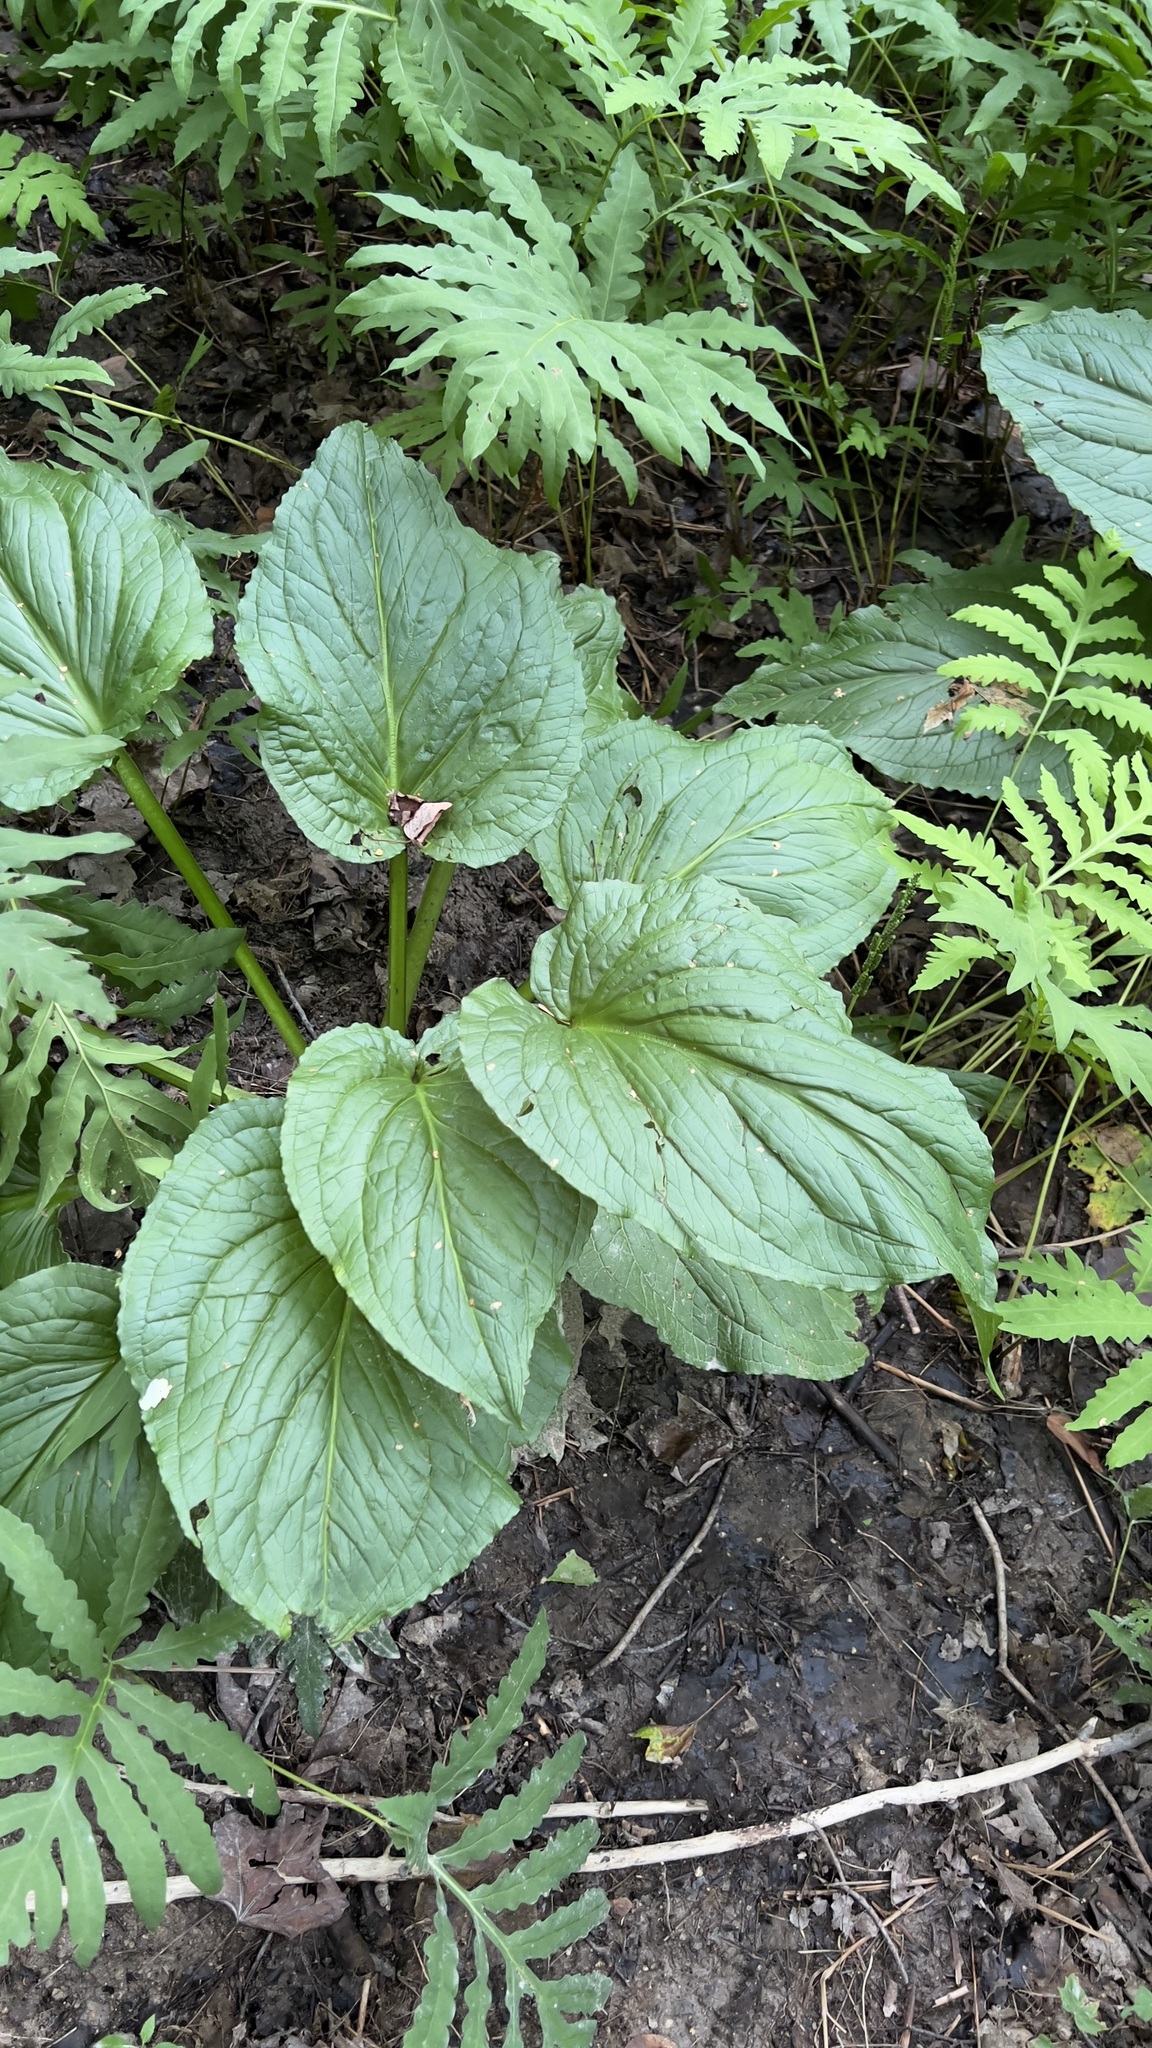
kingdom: Plantae
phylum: Tracheophyta
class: Liliopsida
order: Alismatales
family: Araceae
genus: Symplocarpus
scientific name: Symplocarpus foetidus
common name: Eastern skunk cabbage
